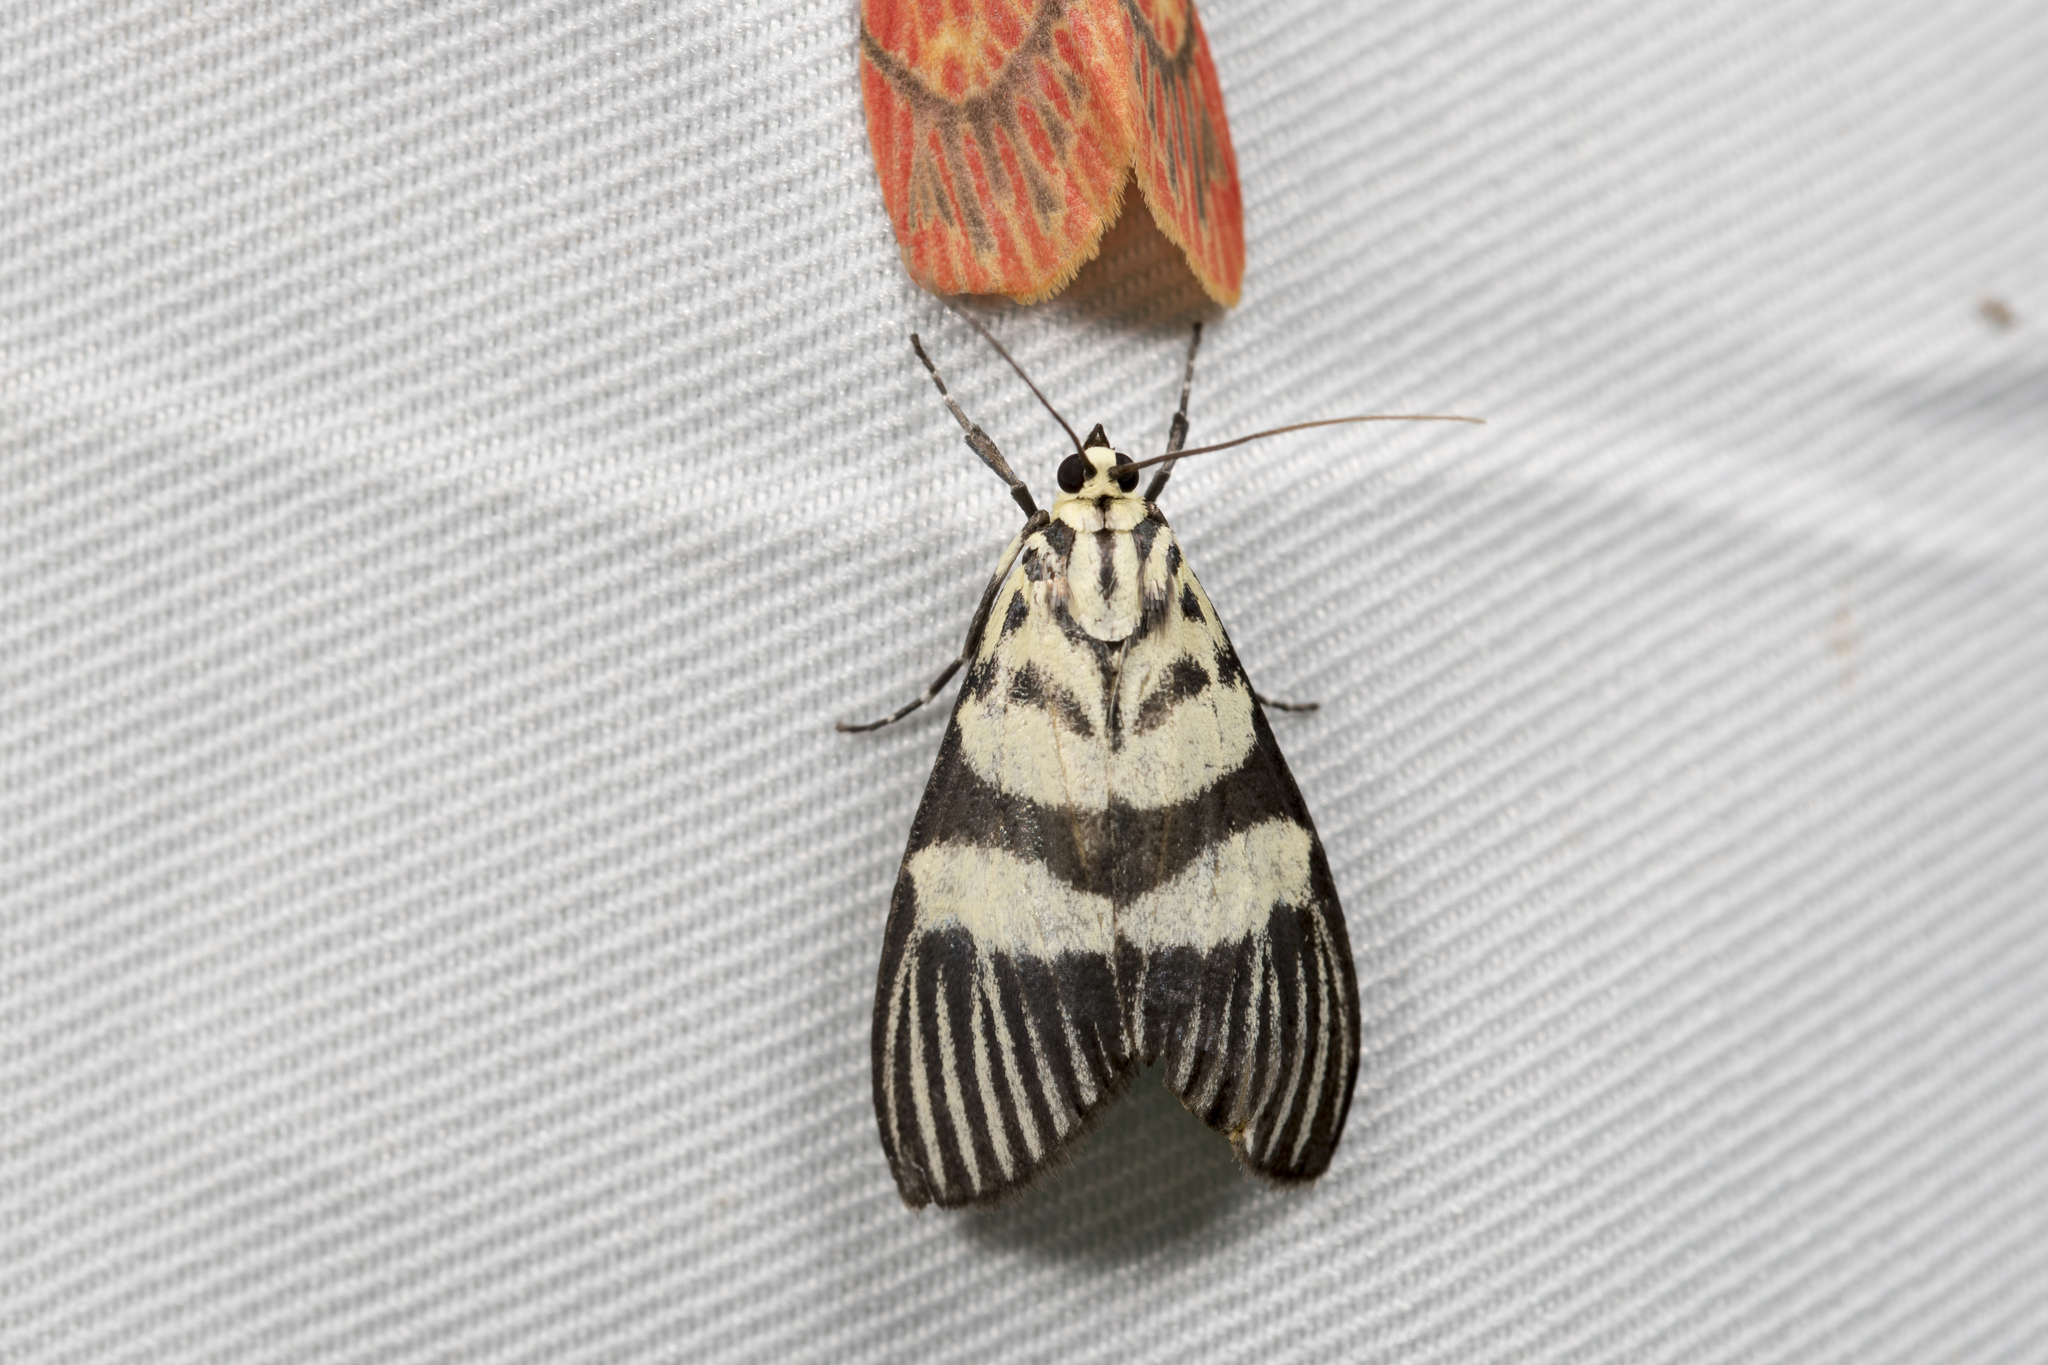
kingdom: Animalia
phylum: Arthropoda
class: Insecta
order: Lepidoptera
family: Crambidae
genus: Heortia
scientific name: Heortia vitessoides
